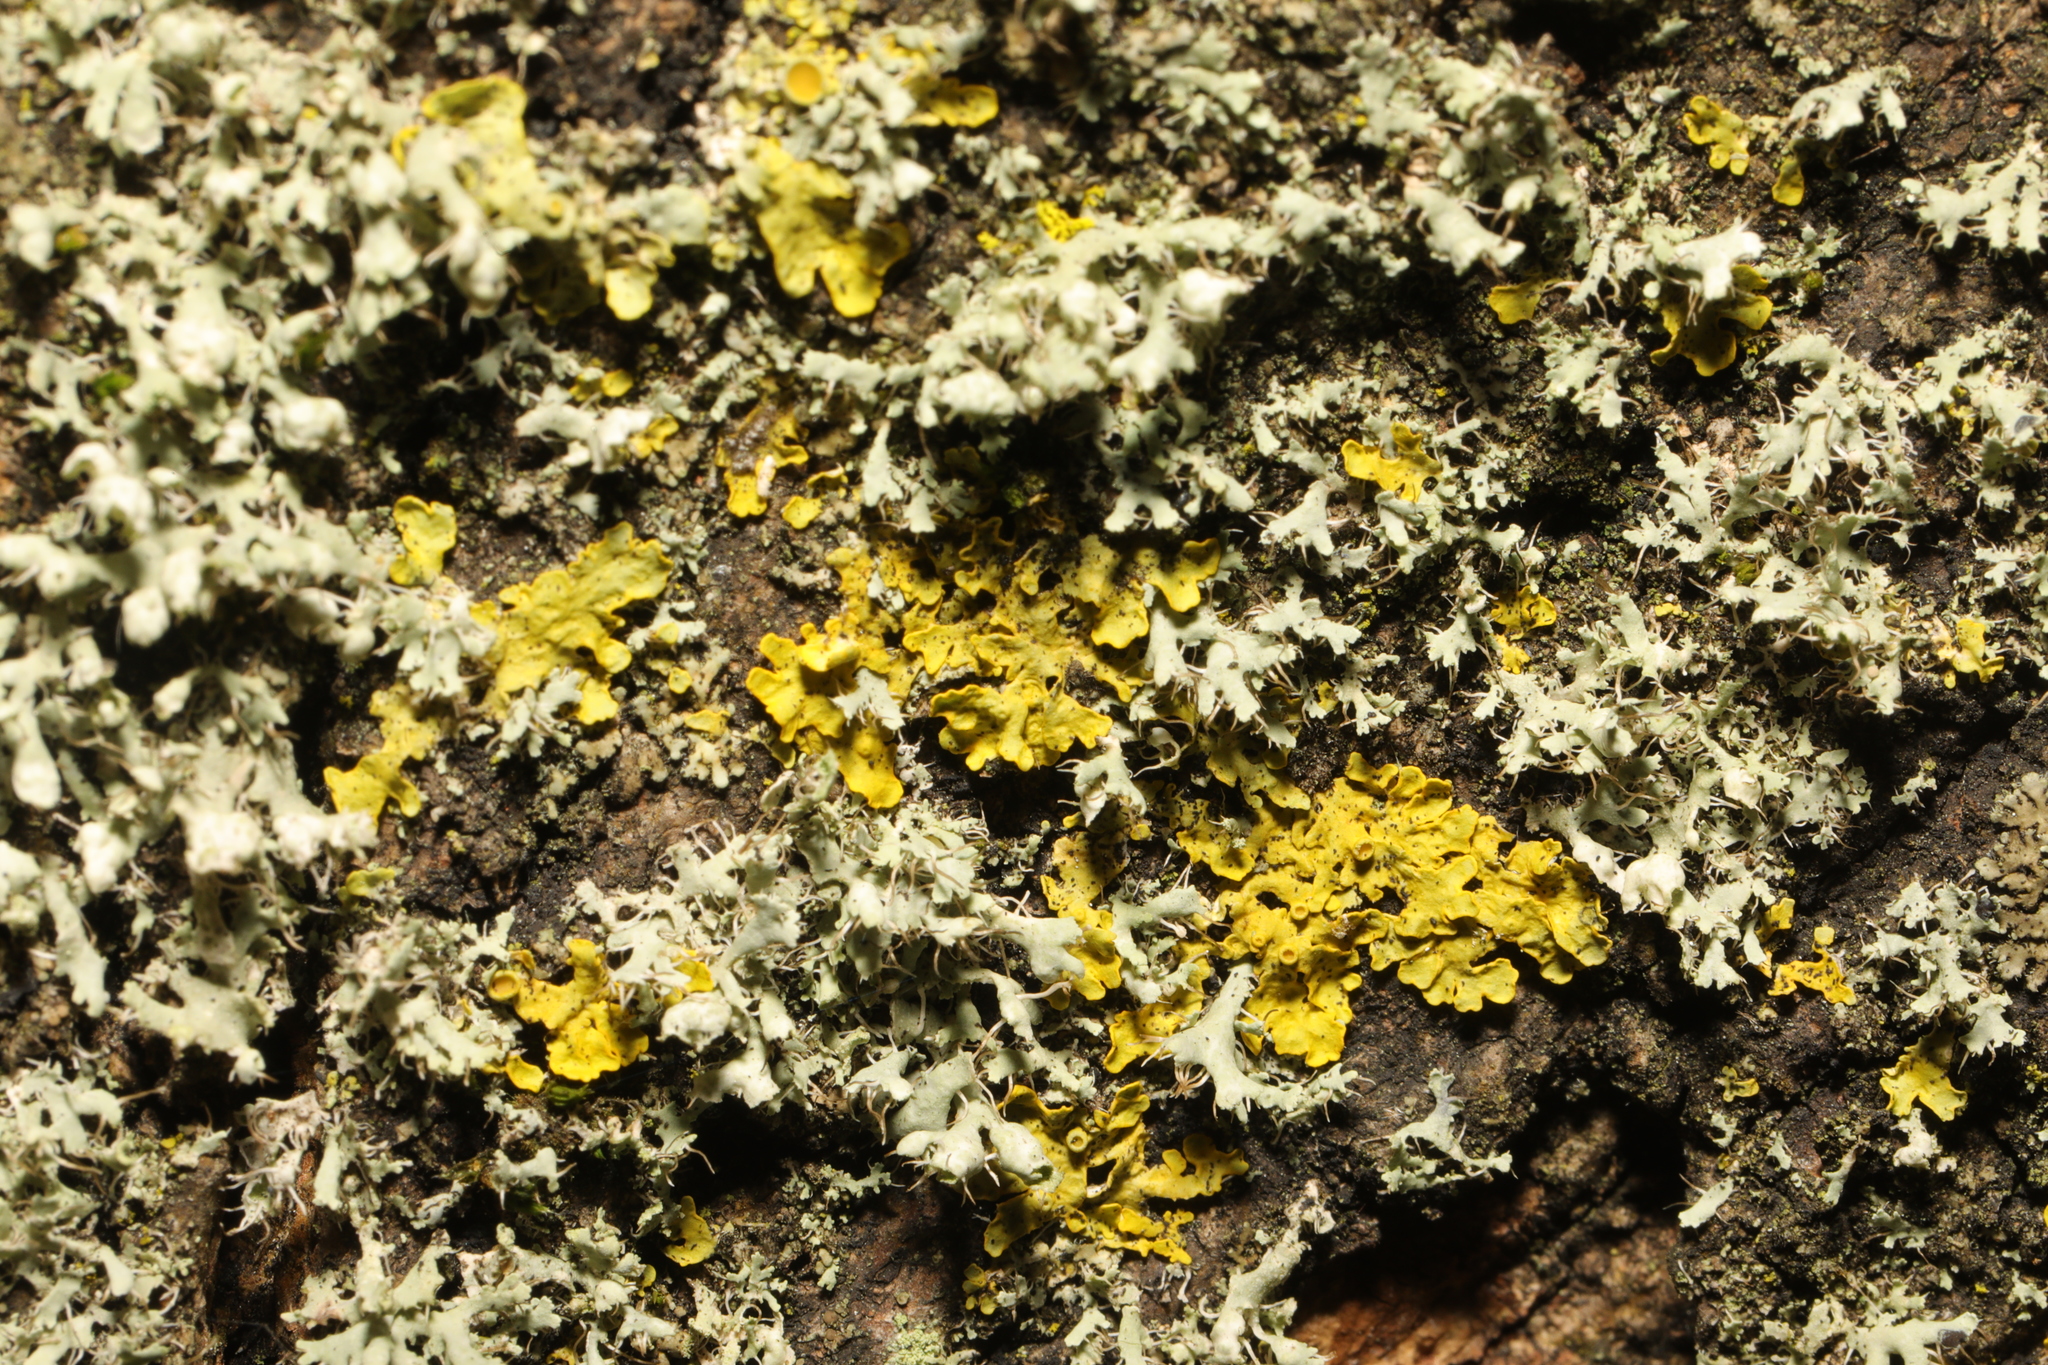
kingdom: Fungi
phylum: Ascomycota
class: Lecanoromycetes
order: Caliciales
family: Physciaceae
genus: Physcia
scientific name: Physcia adscendens
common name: Hooded rosette lichen
